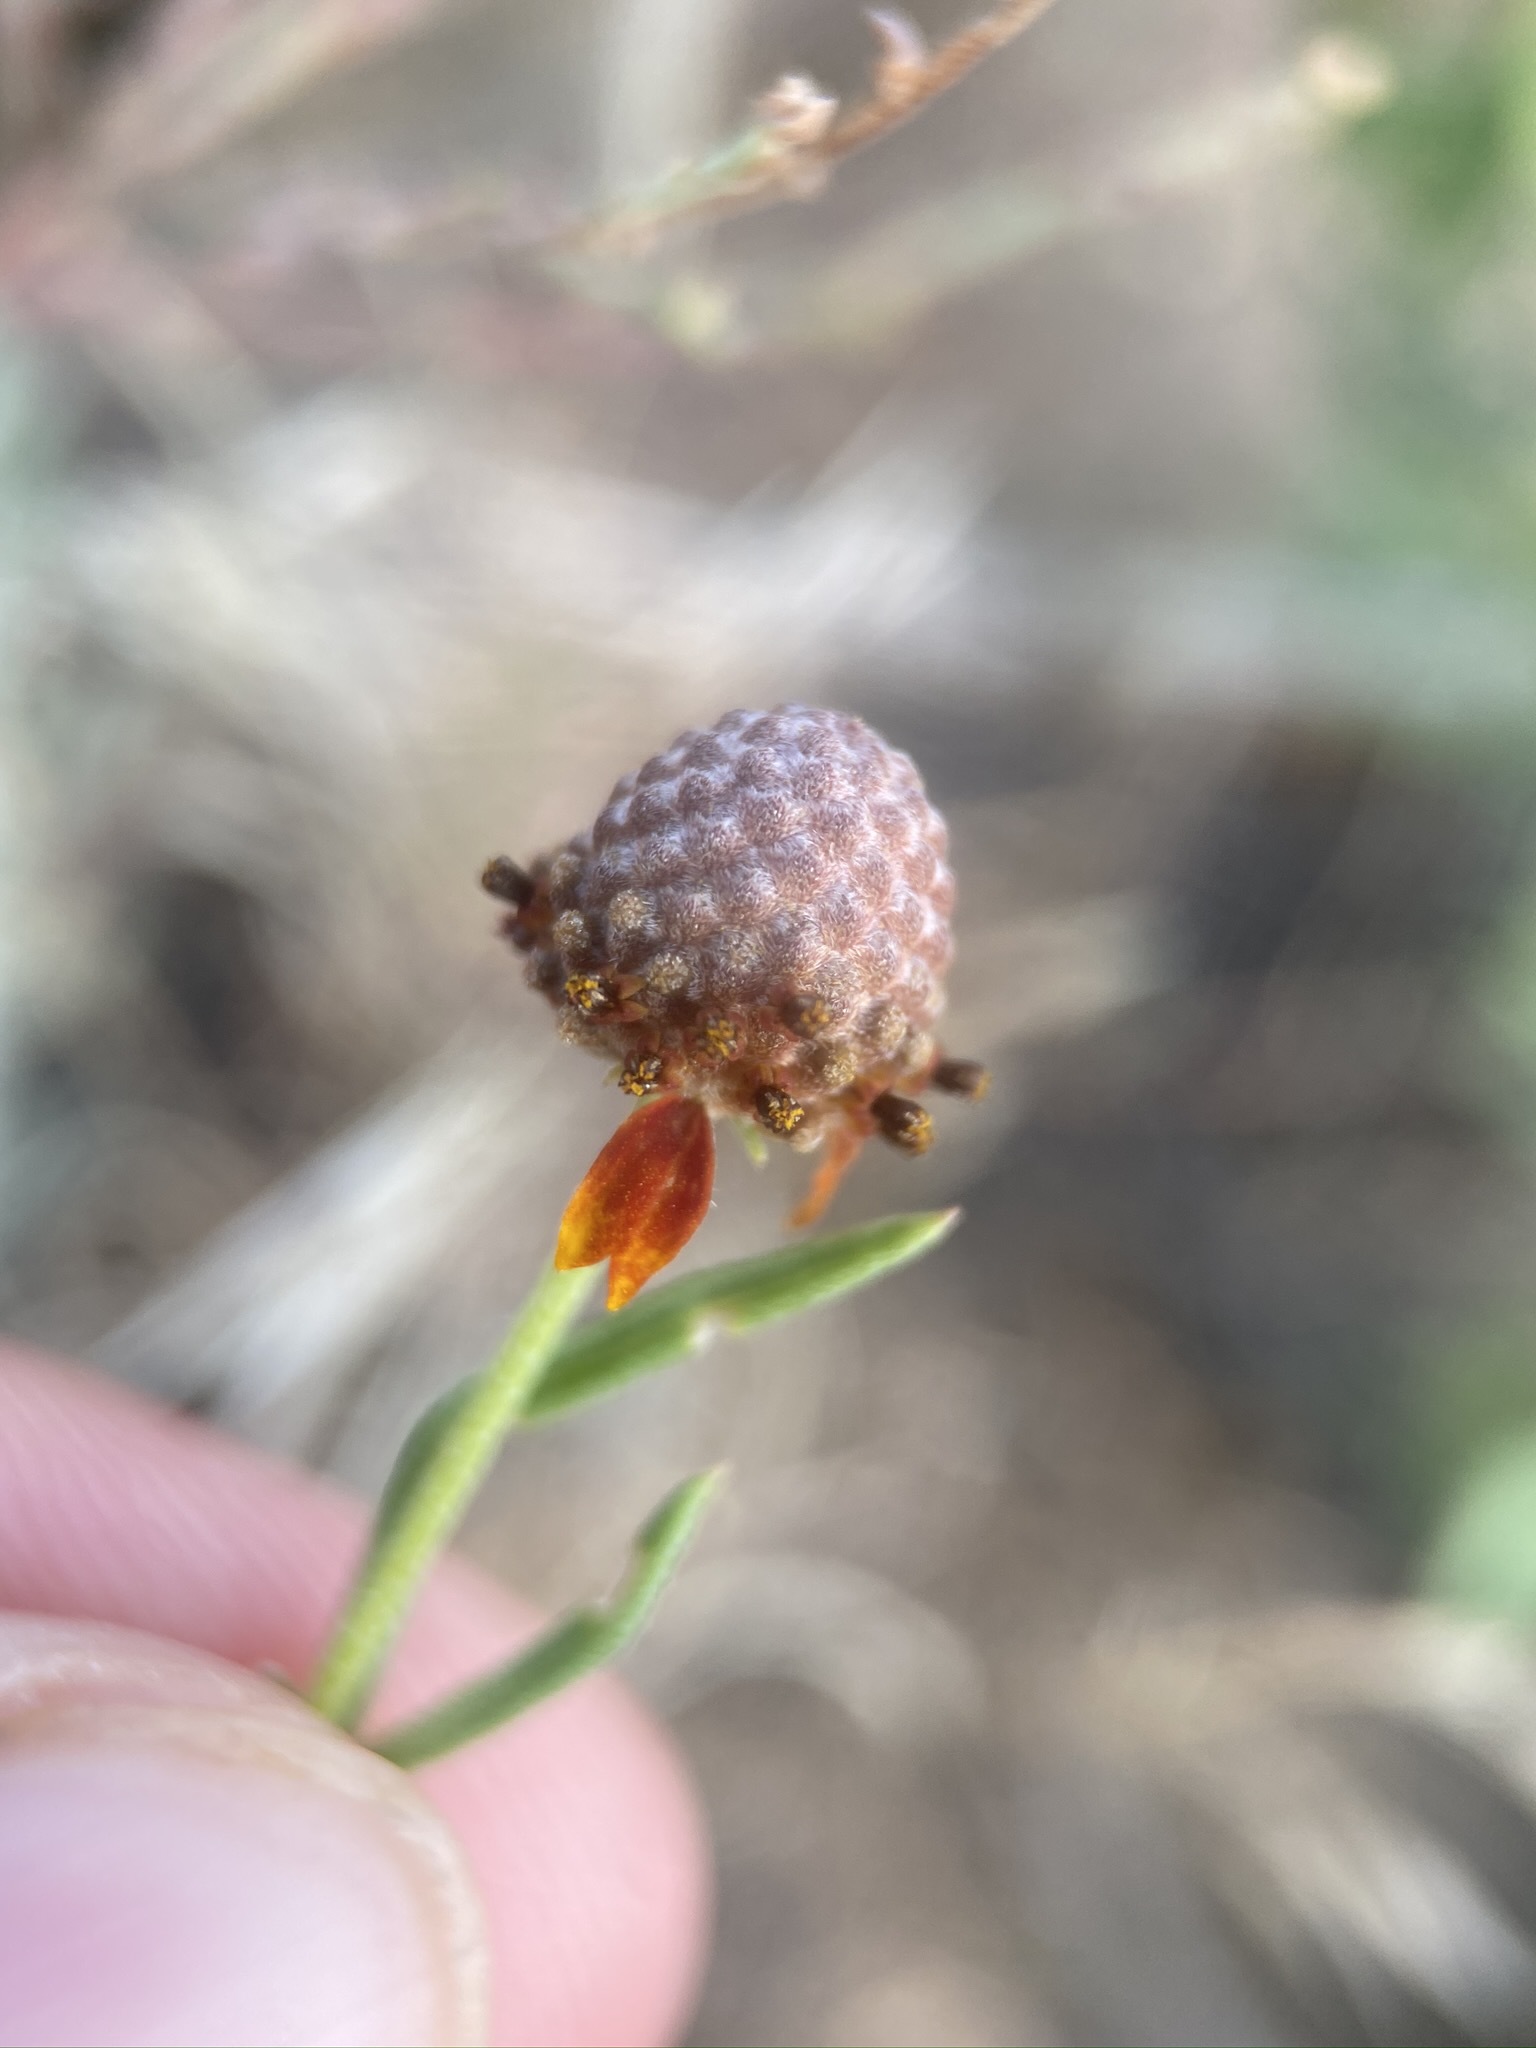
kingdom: Plantae
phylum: Tracheophyta
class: Magnoliopsida
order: Asterales
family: Asteraceae
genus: Ratibida
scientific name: Ratibida tagetes
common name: Green mexican-hat
